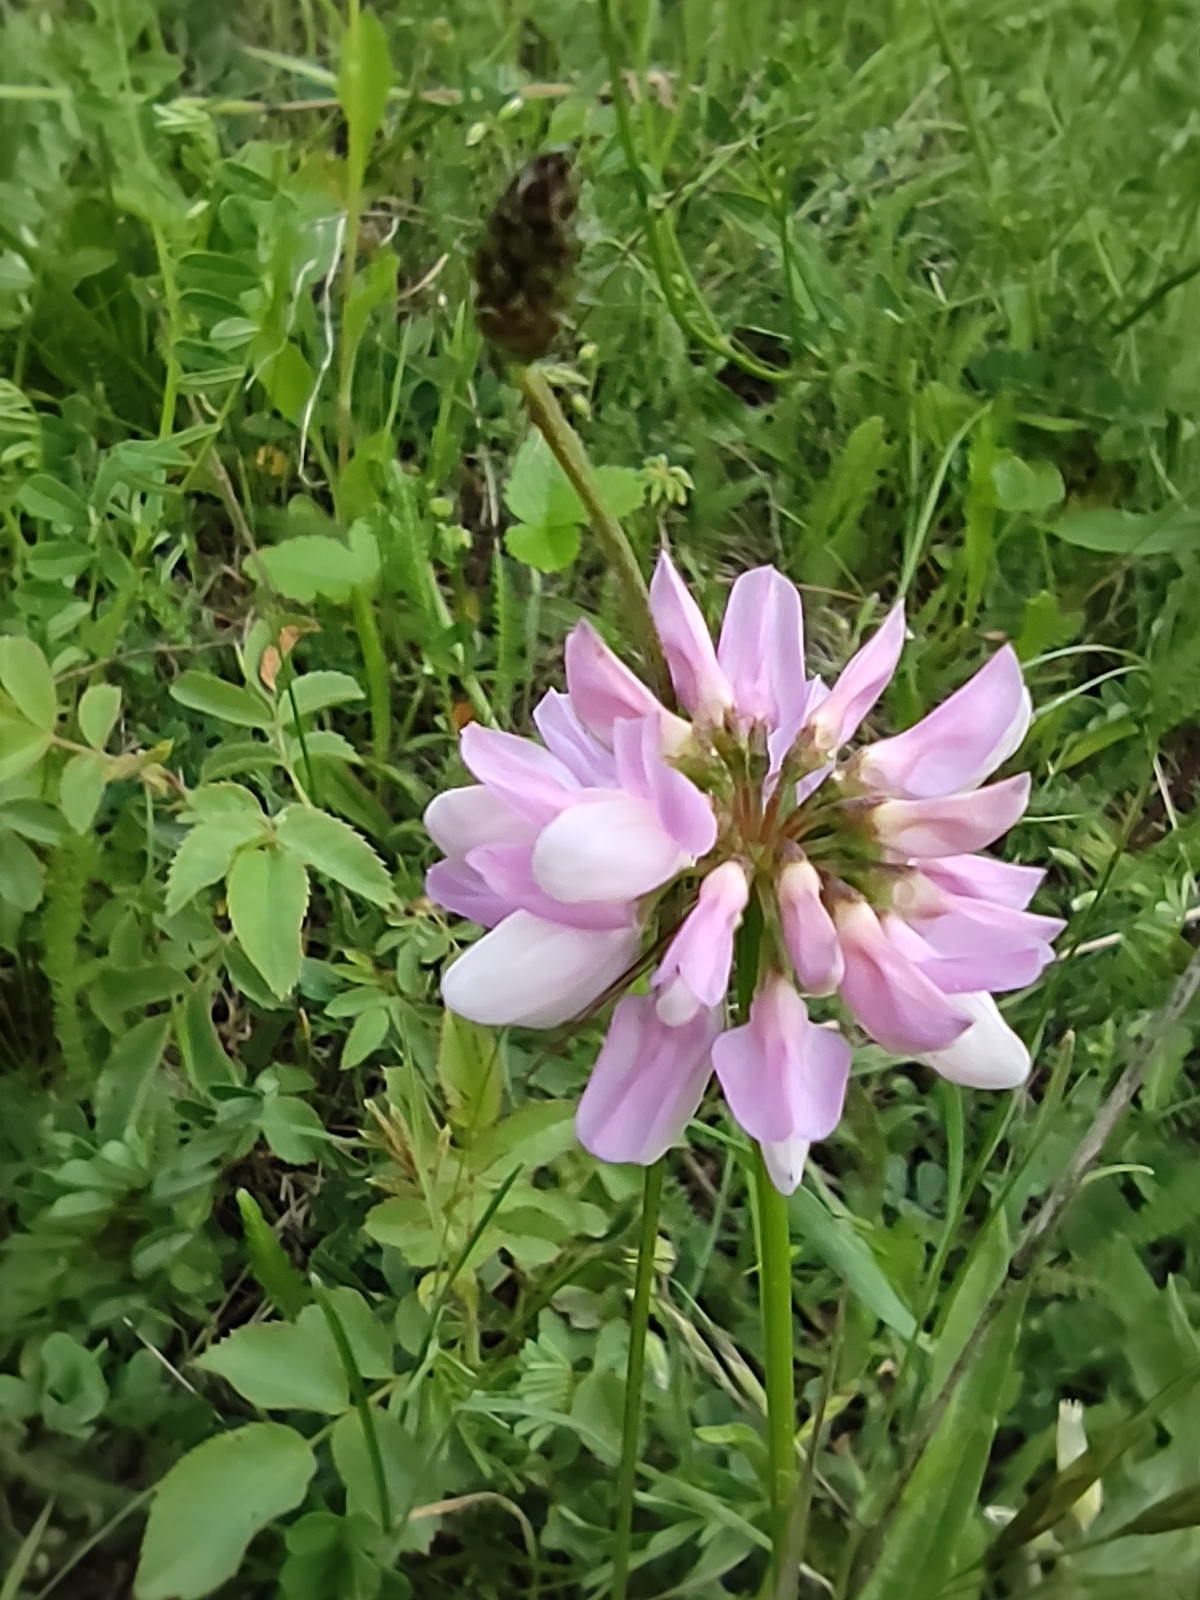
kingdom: Plantae
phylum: Tracheophyta
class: Magnoliopsida
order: Fabales
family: Fabaceae
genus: Coronilla
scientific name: Coronilla varia
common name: Crownvetch
